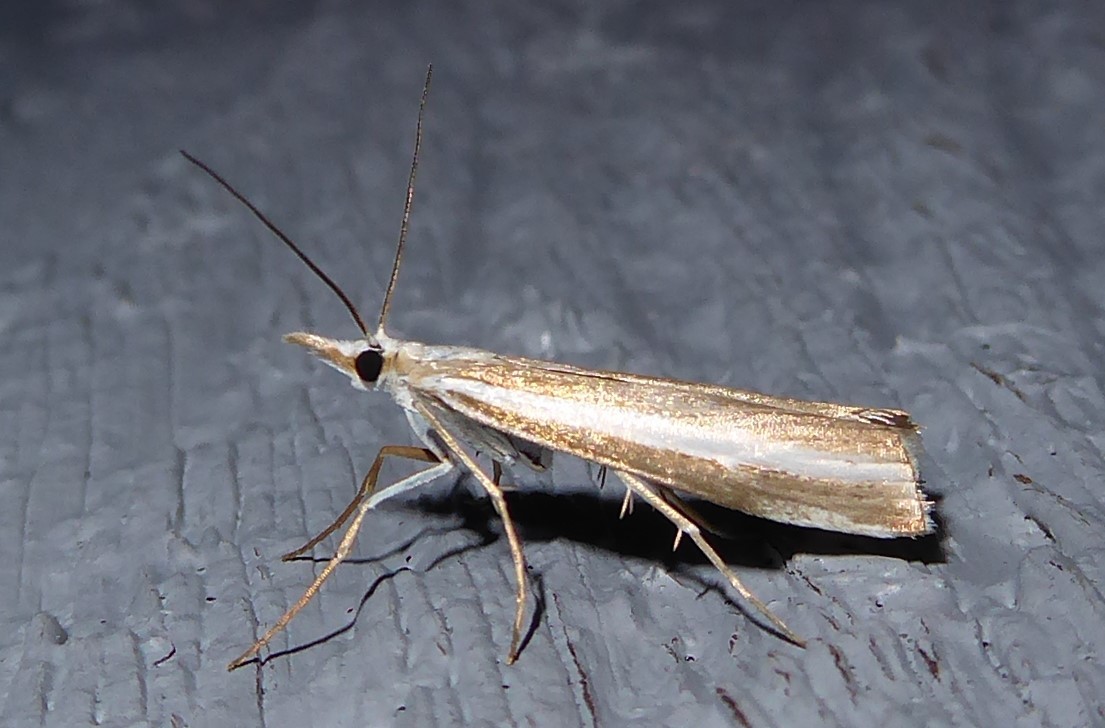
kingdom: Animalia
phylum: Arthropoda
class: Insecta
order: Lepidoptera
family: Crambidae
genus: Orocrambus
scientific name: Orocrambus vittellus
